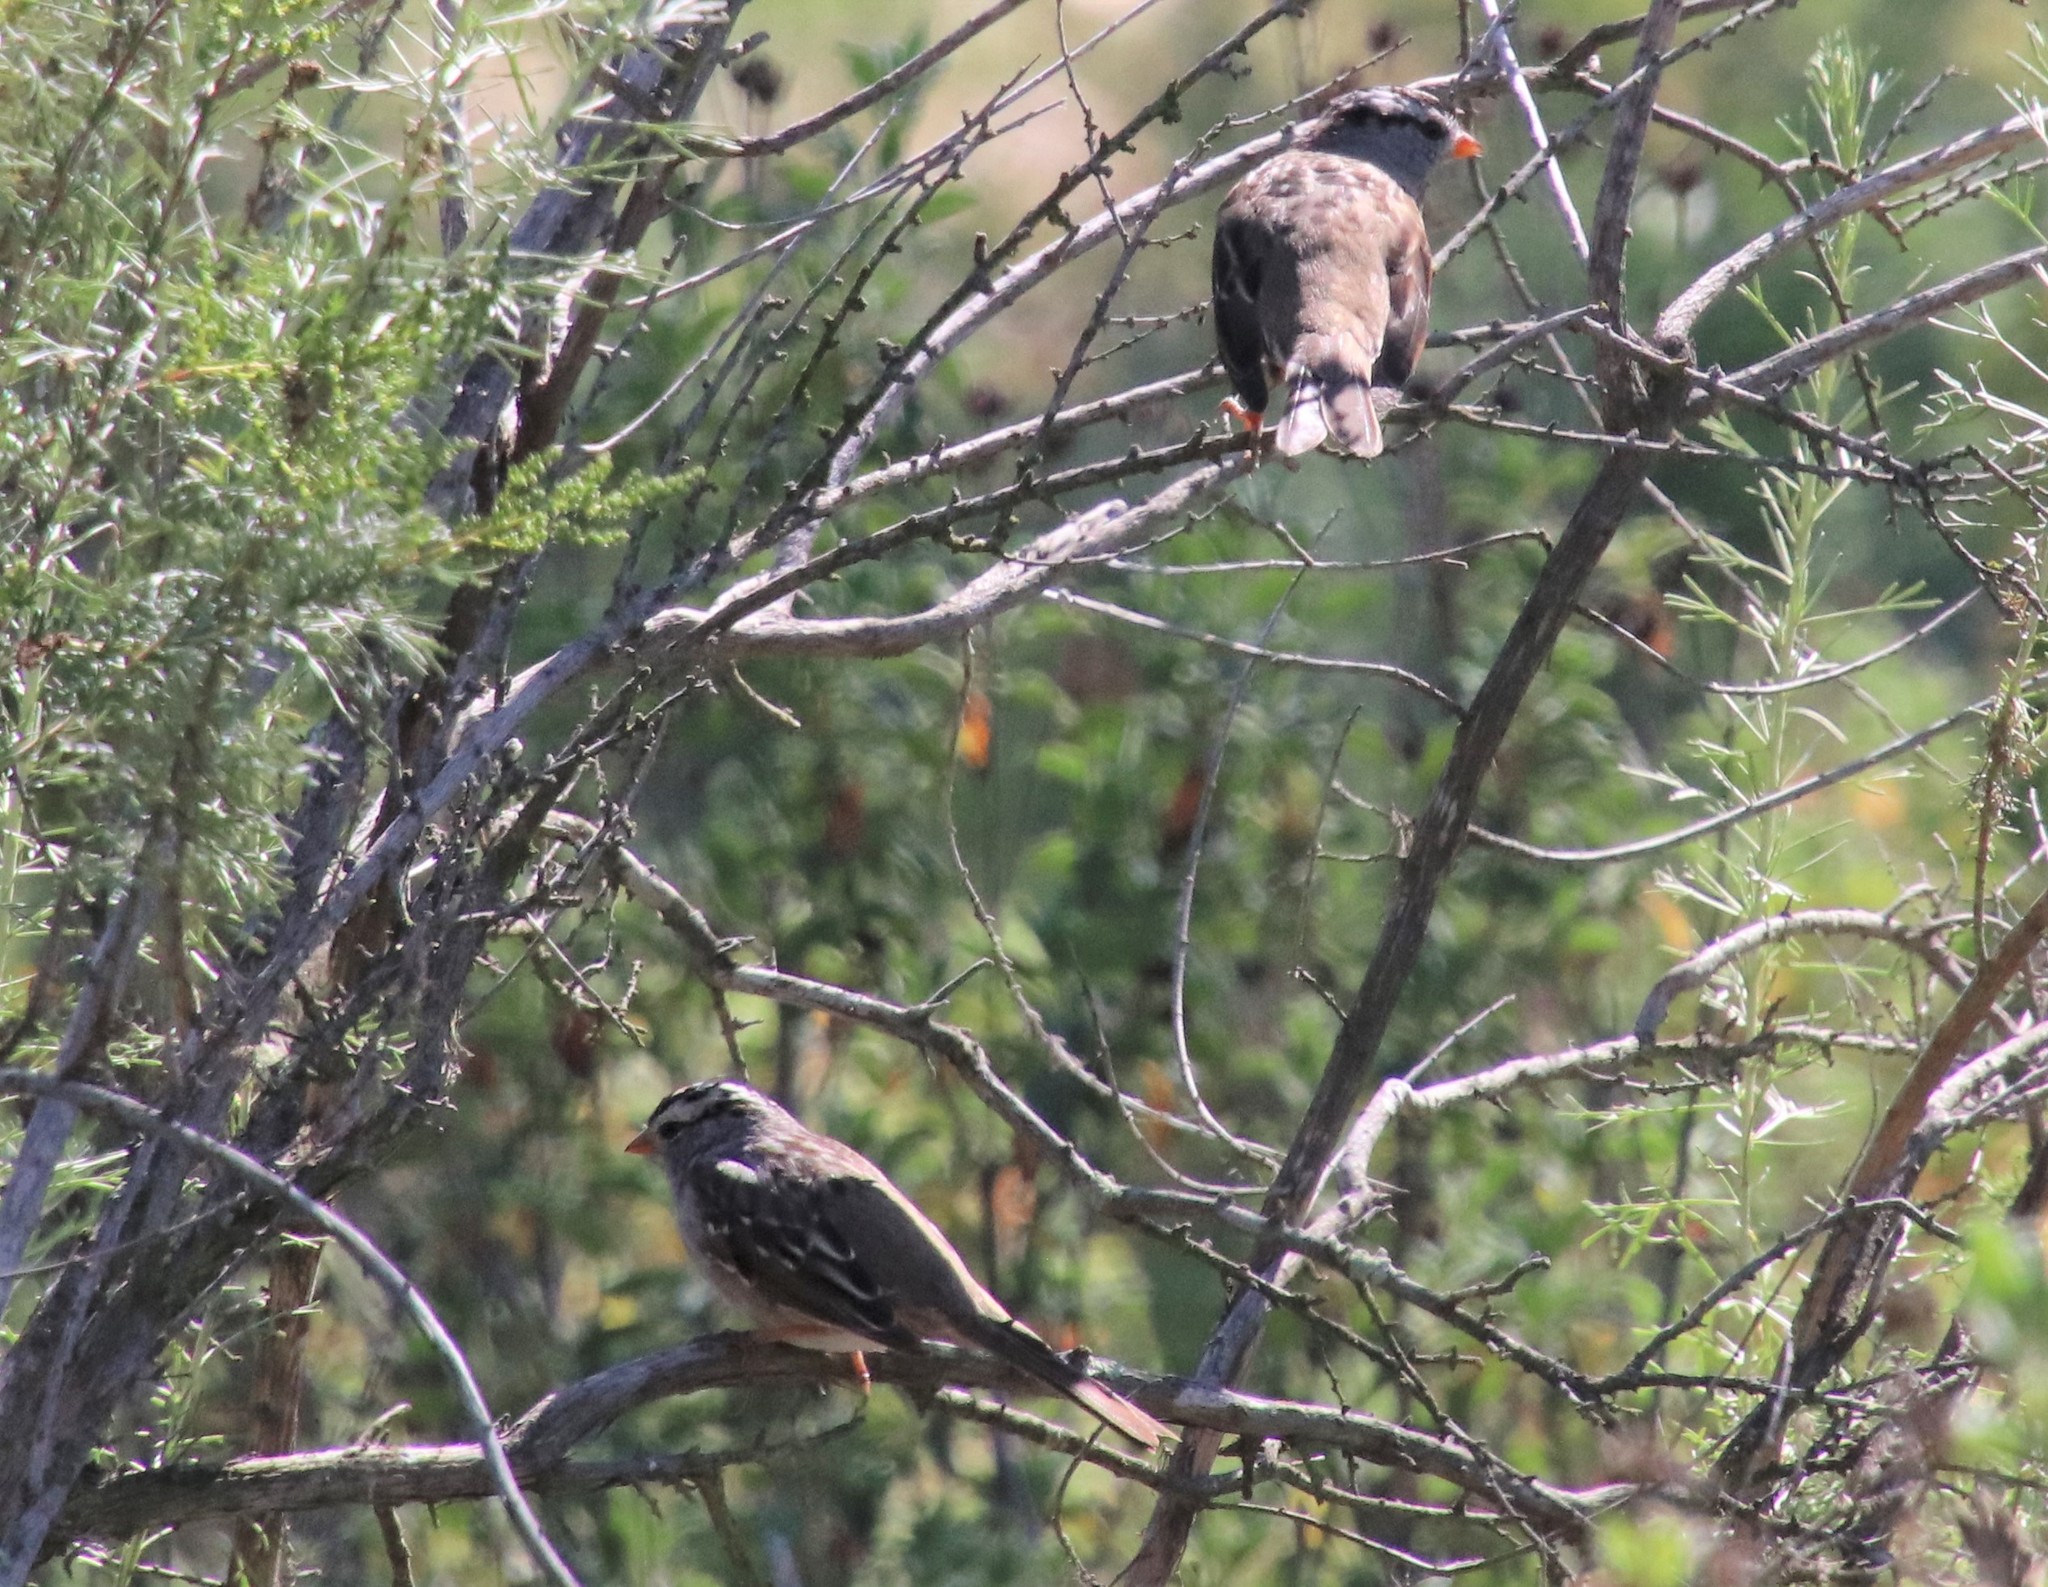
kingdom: Animalia
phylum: Chordata
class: Aves
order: Passeriformes
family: Passerellidae
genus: Zonotrichia
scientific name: Zonotrichia leucophrys
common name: White-crowned sparrow
